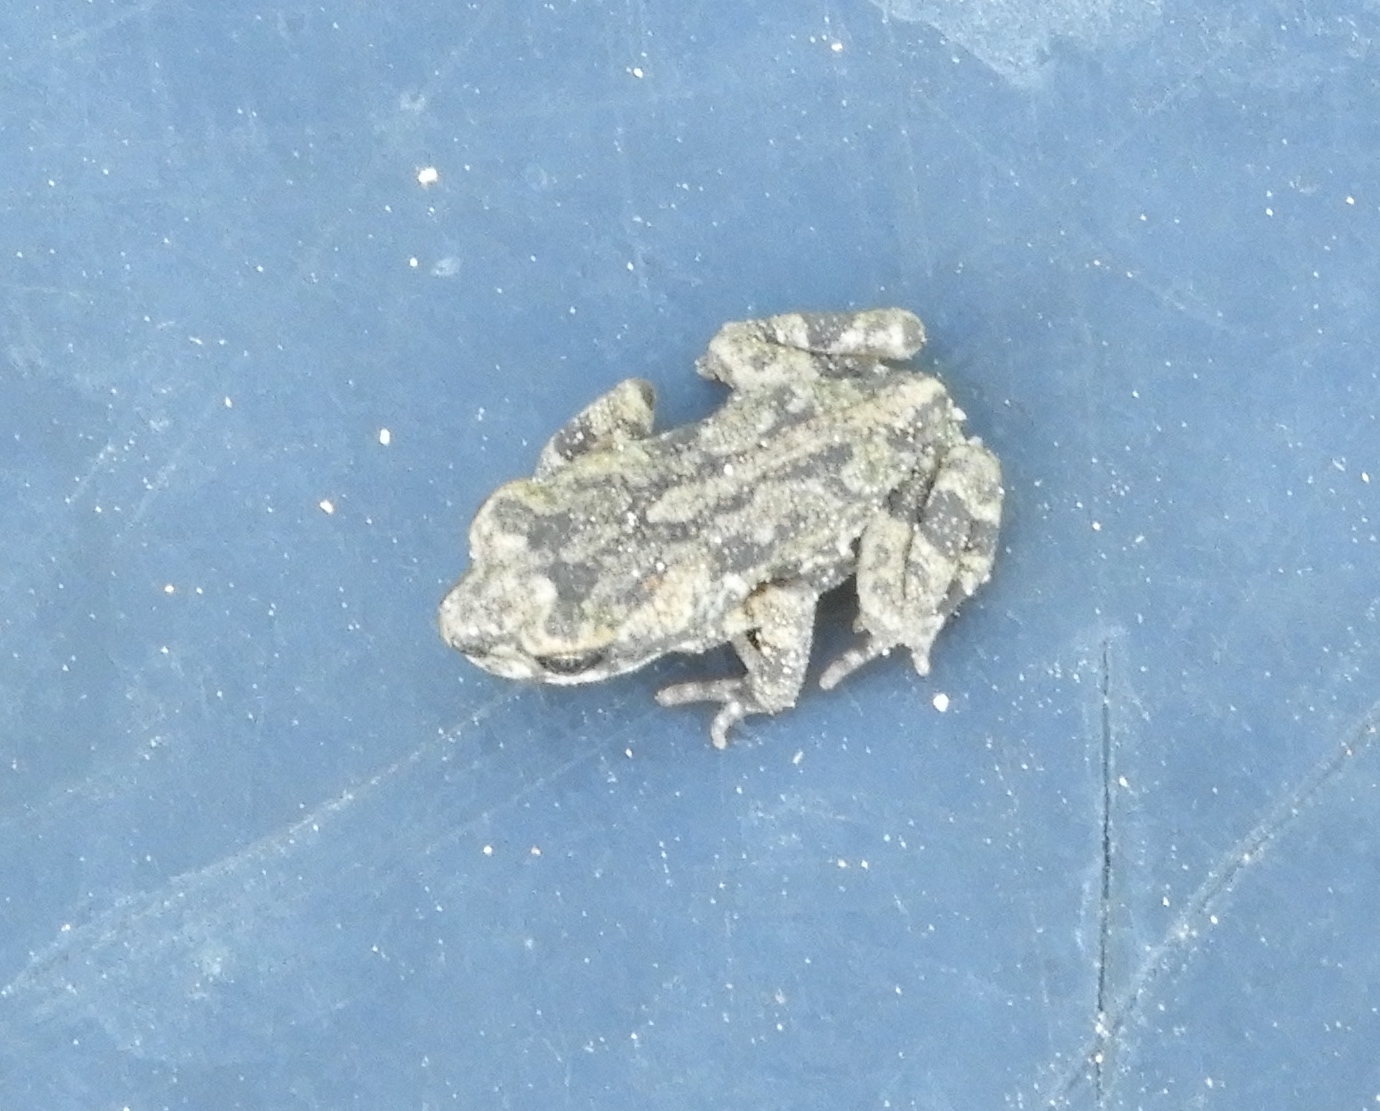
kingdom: Animalia
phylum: Chordata
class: Amphibia
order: Anura
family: Bufonidae
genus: Incilius
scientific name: Incilius marmoreus
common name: Marbled toad
